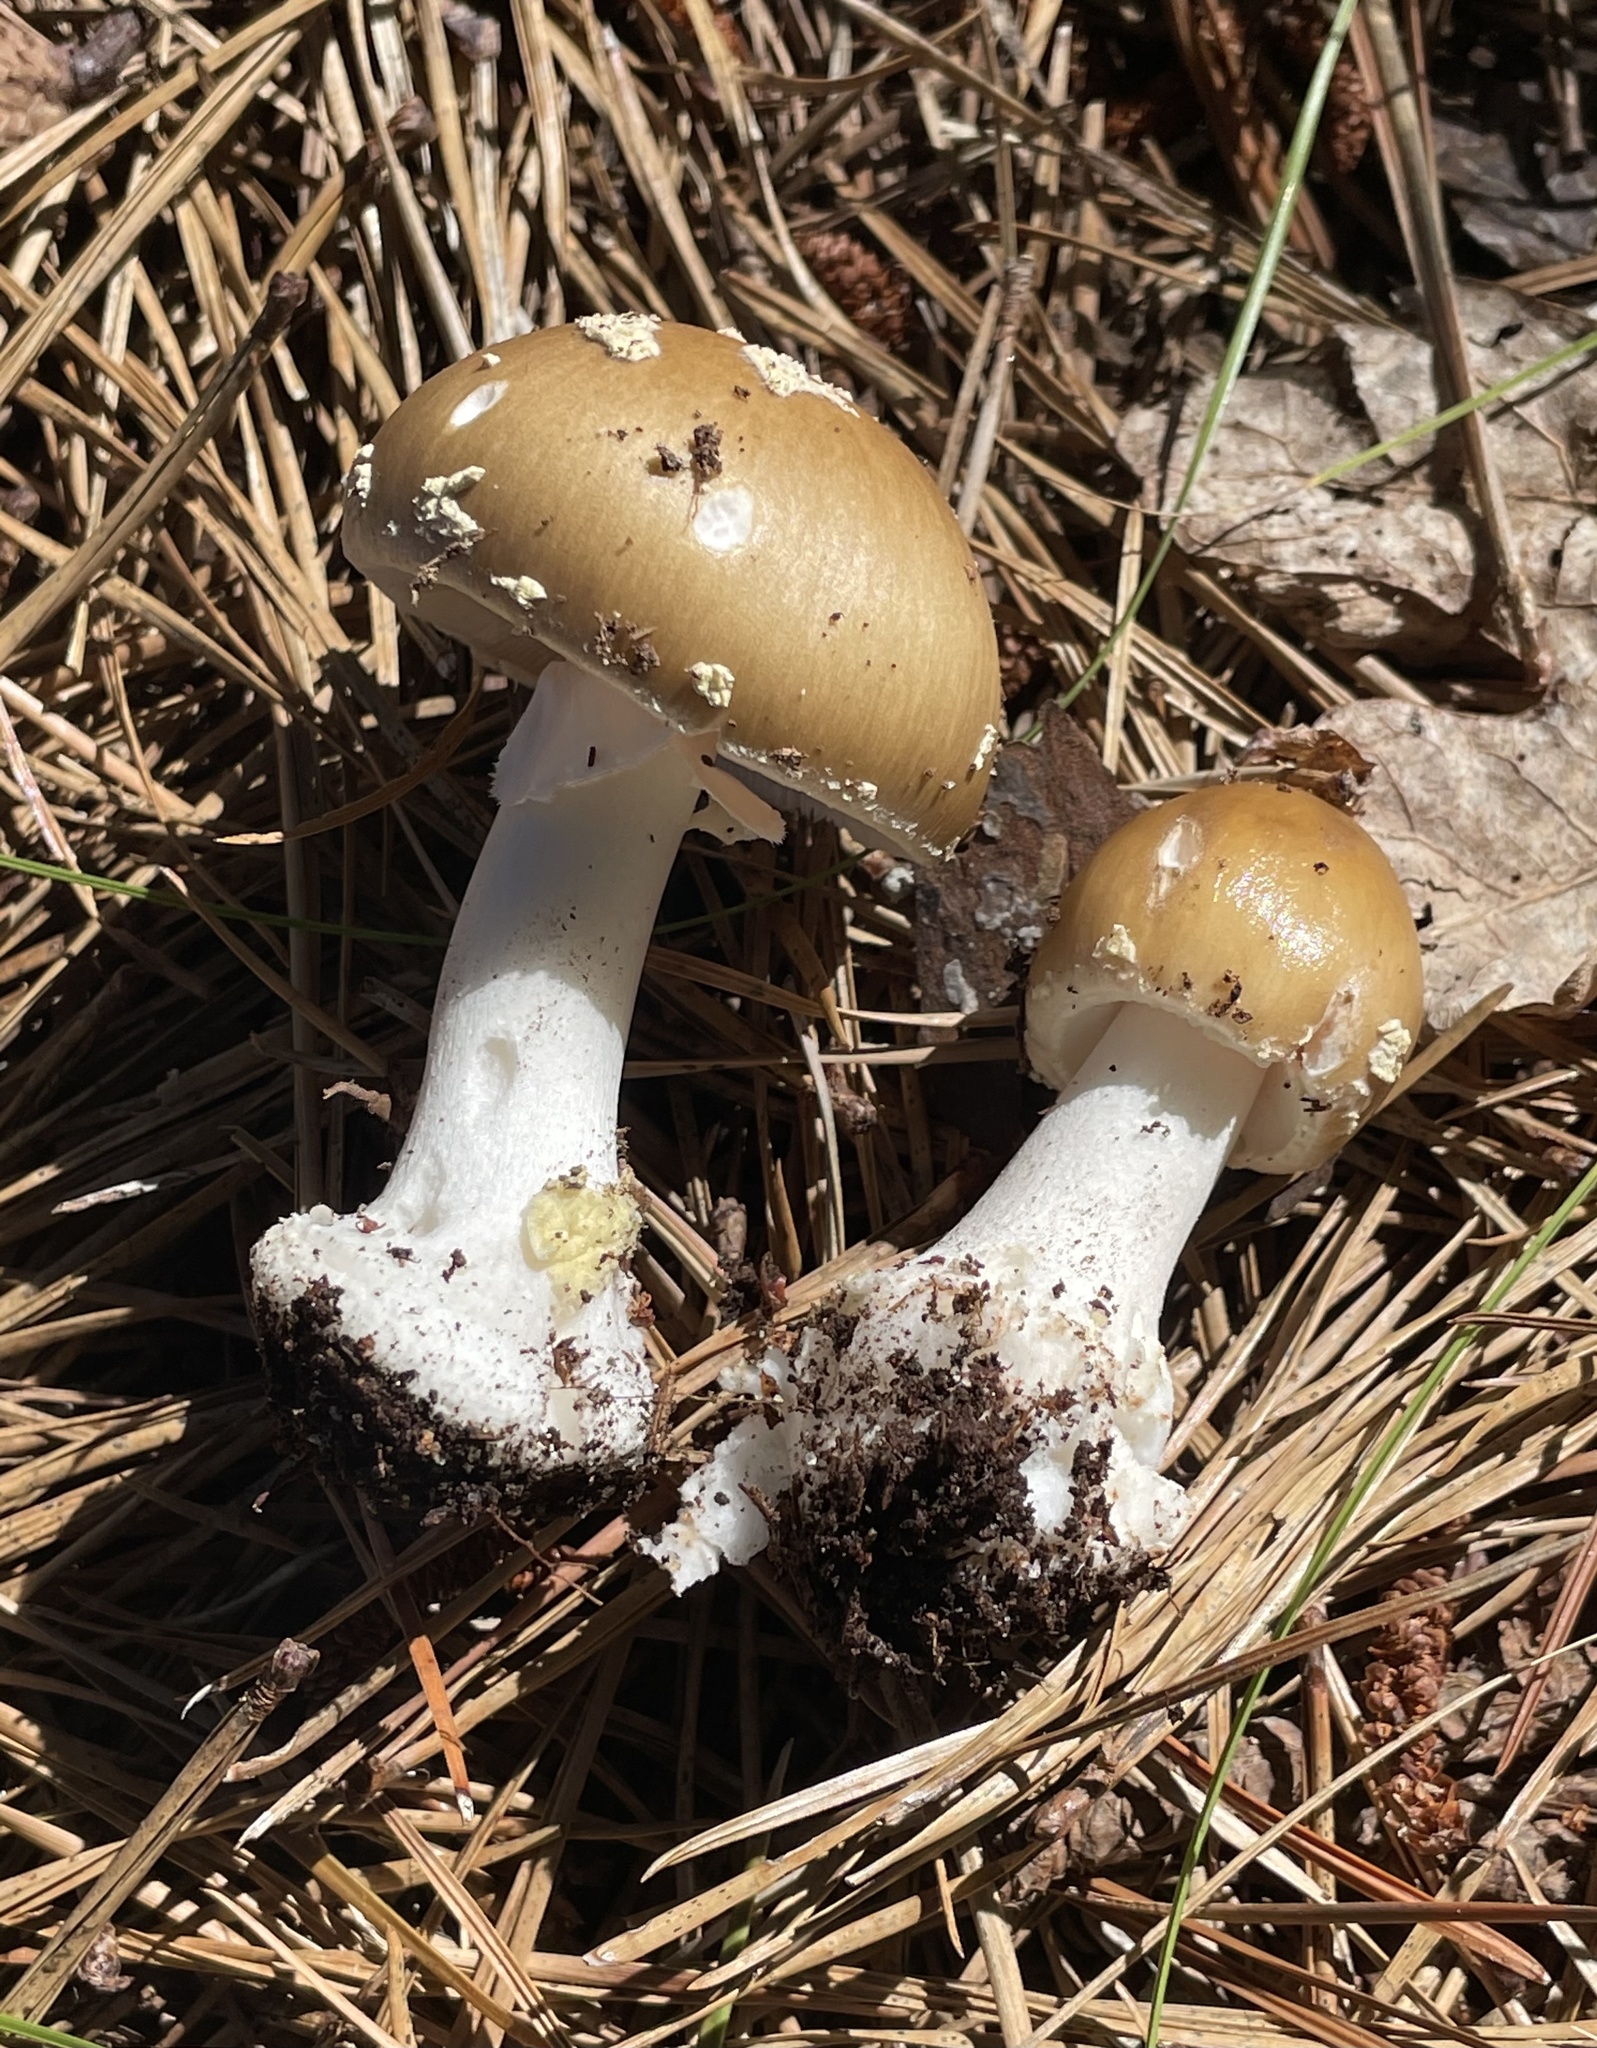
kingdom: Fungi
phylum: Basidiomycota
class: Agaricomycetes
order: Agaricales
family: Amanitaceae
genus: Amanita
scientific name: Amanita brunnescens
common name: Brown american star-footed amanita
